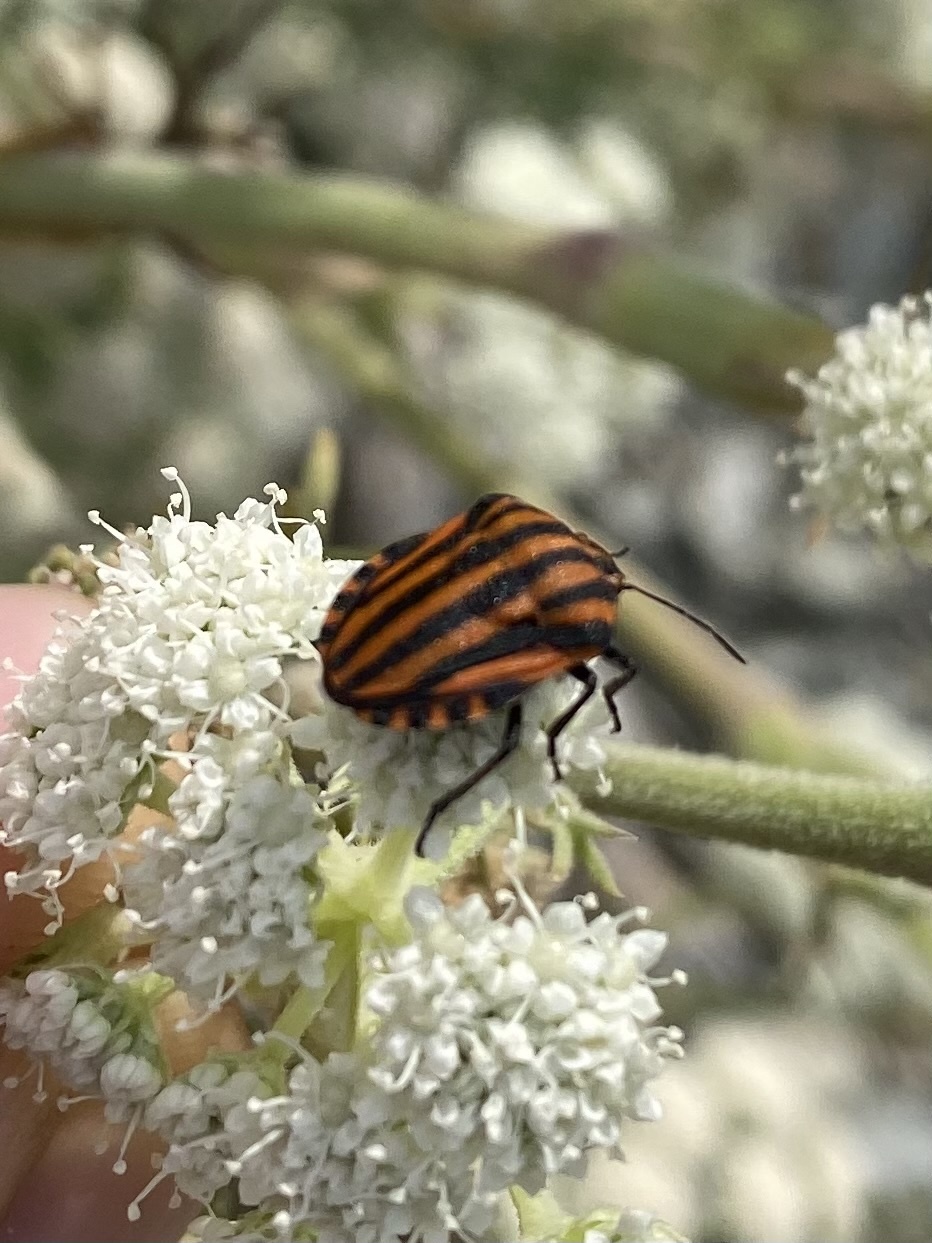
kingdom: Animalia
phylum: Arthropoda
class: Insecta
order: Hemiptera
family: Pentatomidae
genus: Graphosoma
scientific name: Graphosoma italicum
